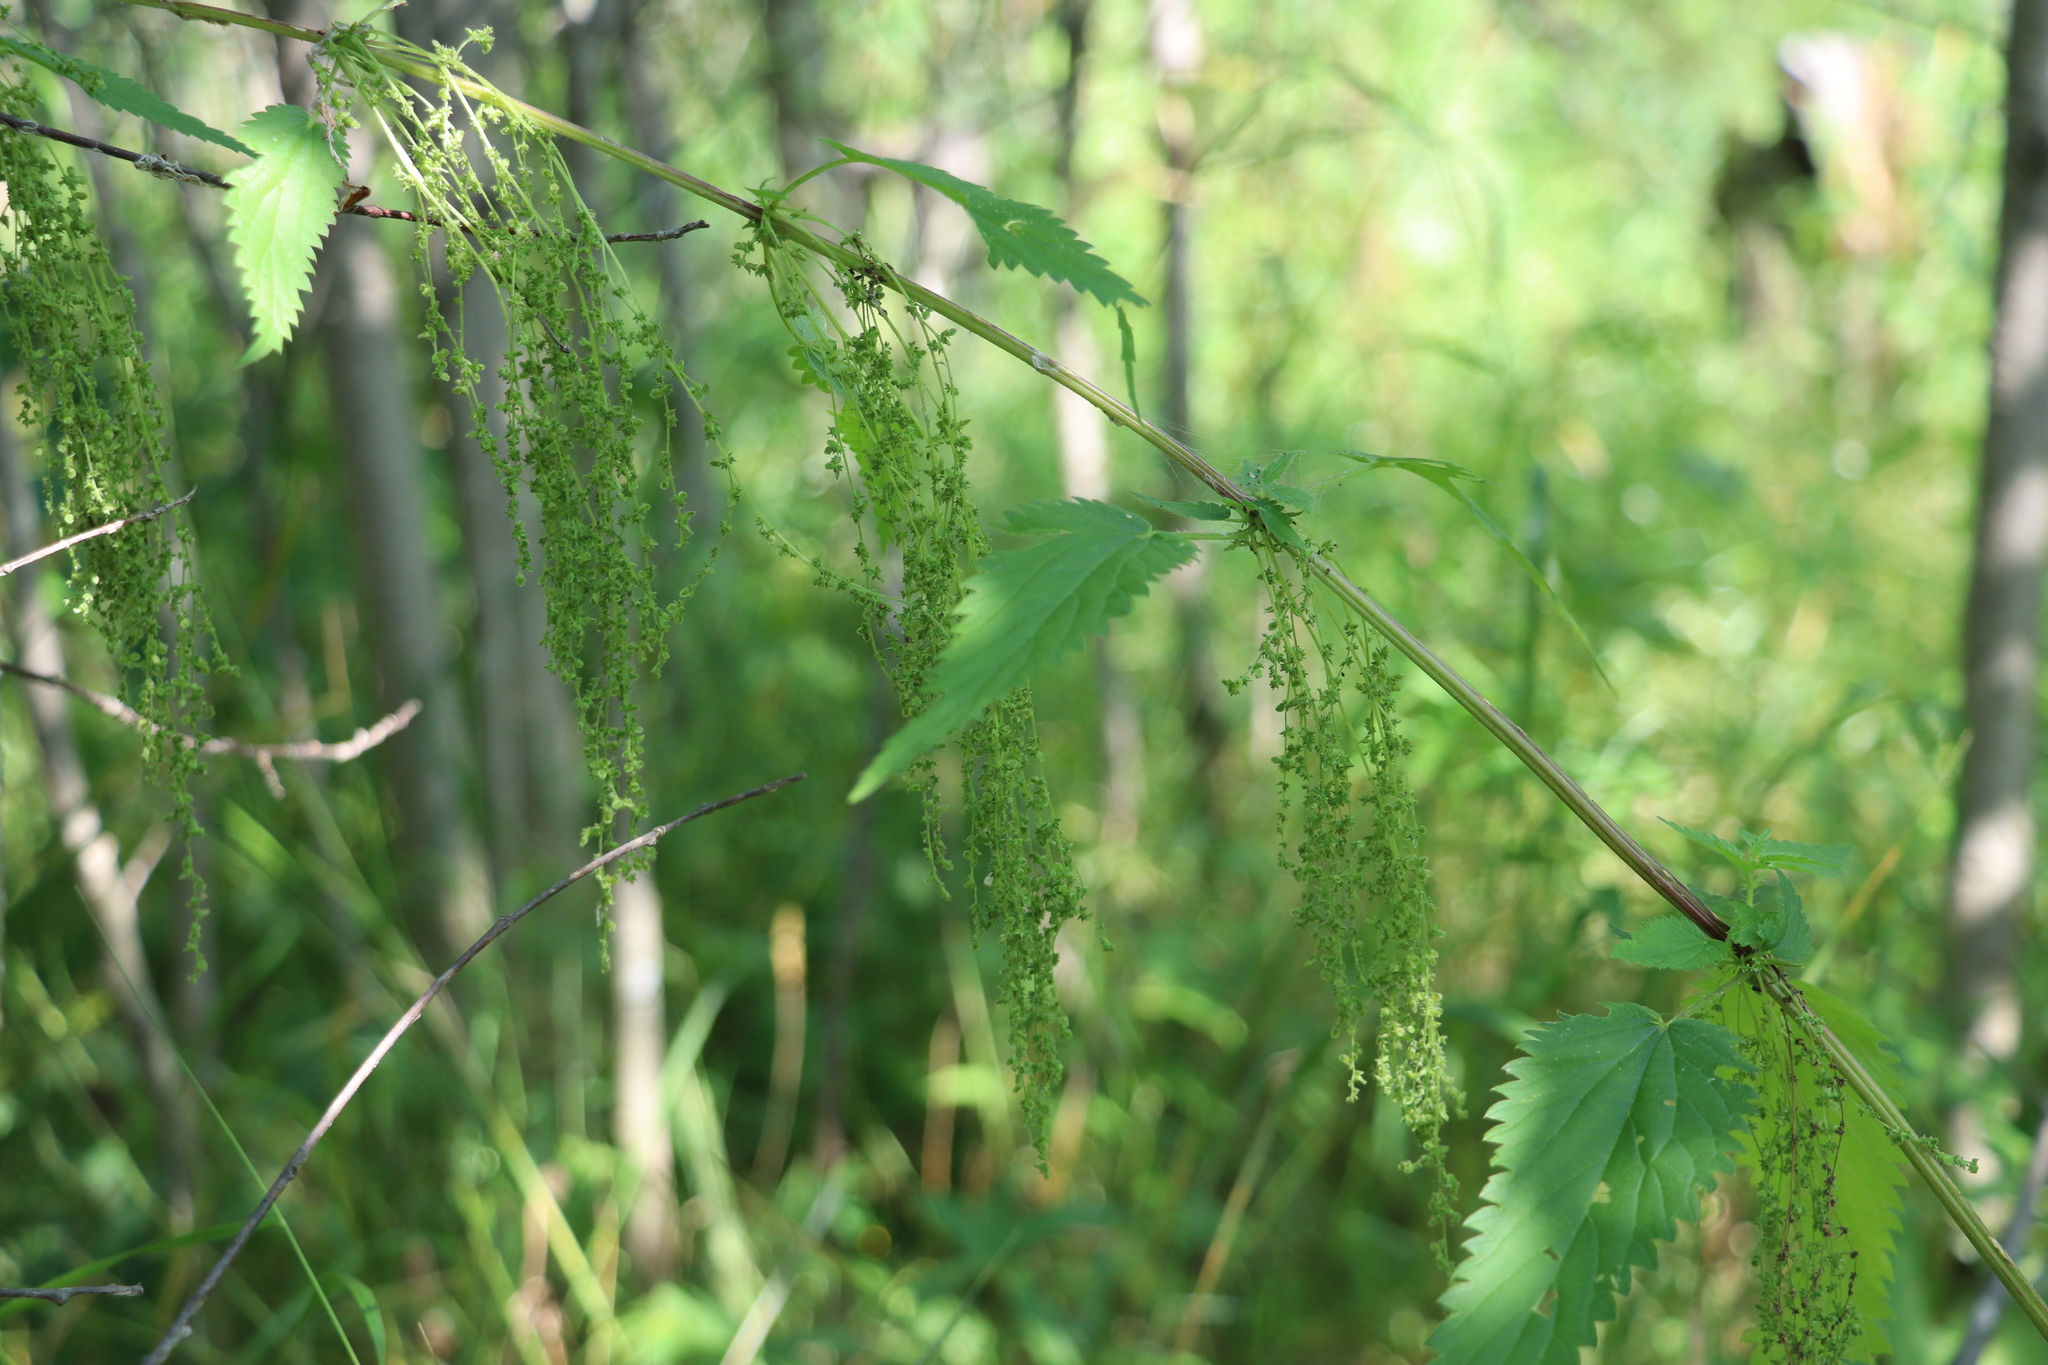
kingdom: Plantae
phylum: Tracheophyta
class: Magnoliopsida
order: Rosales
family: Urticaceae
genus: Urtica
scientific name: Urtica dioica
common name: Common nettle
